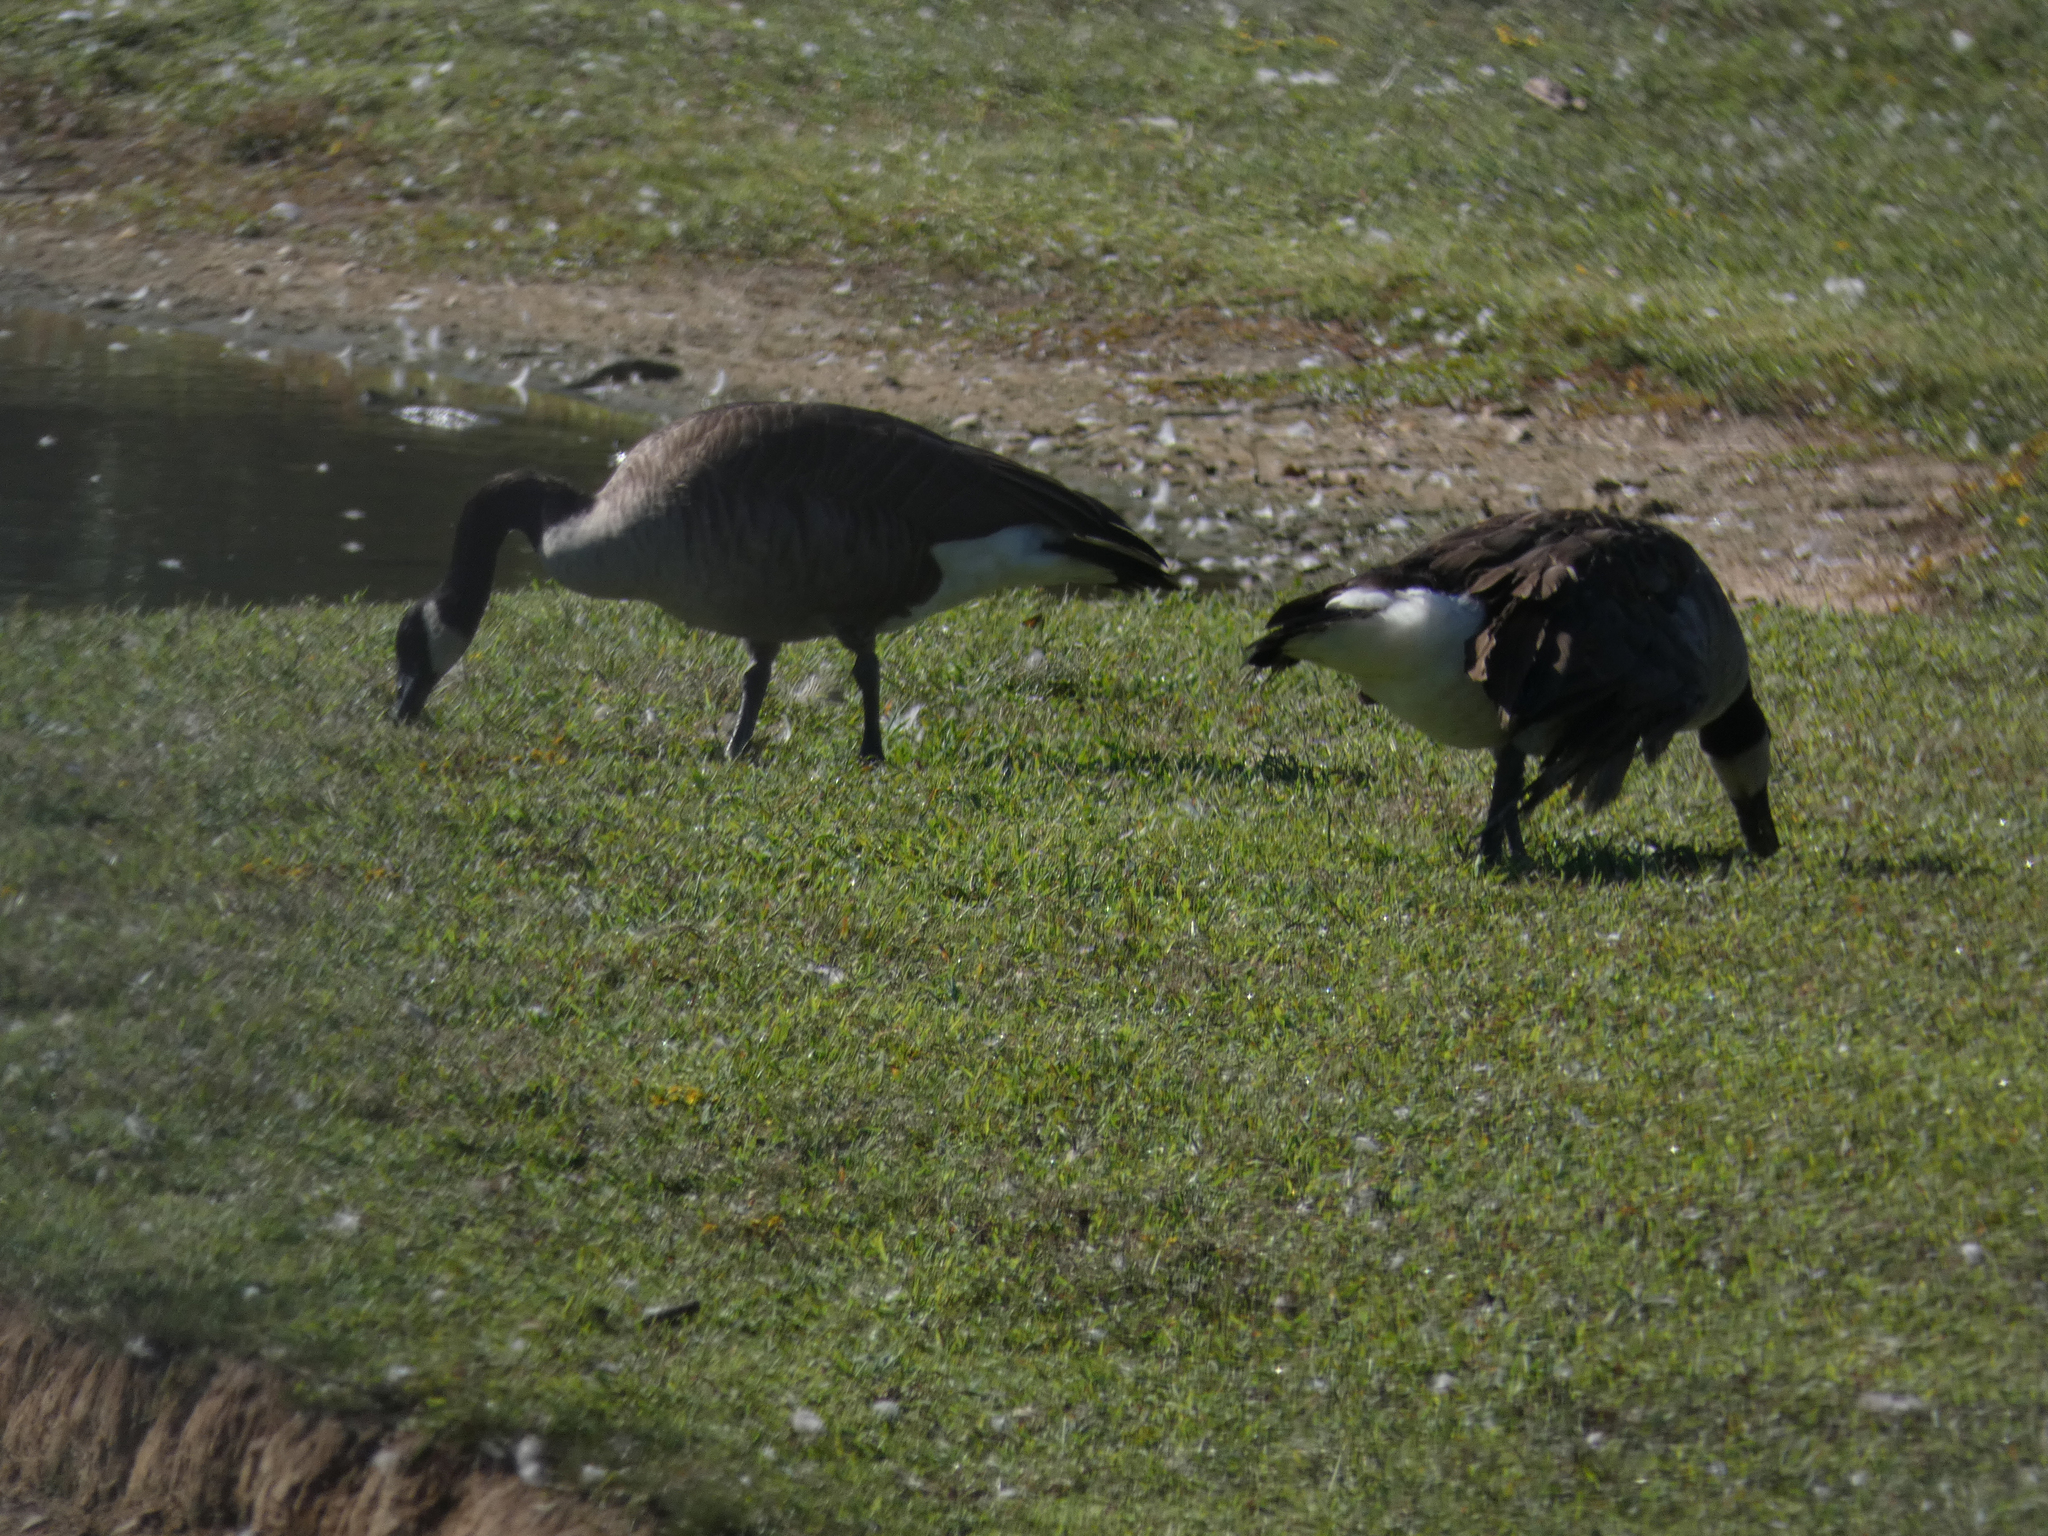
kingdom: Animalia
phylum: Chordata
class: Aves
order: Anseriformes
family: Anatidae
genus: Branta
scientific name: Branta canadensis
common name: Canada goose
